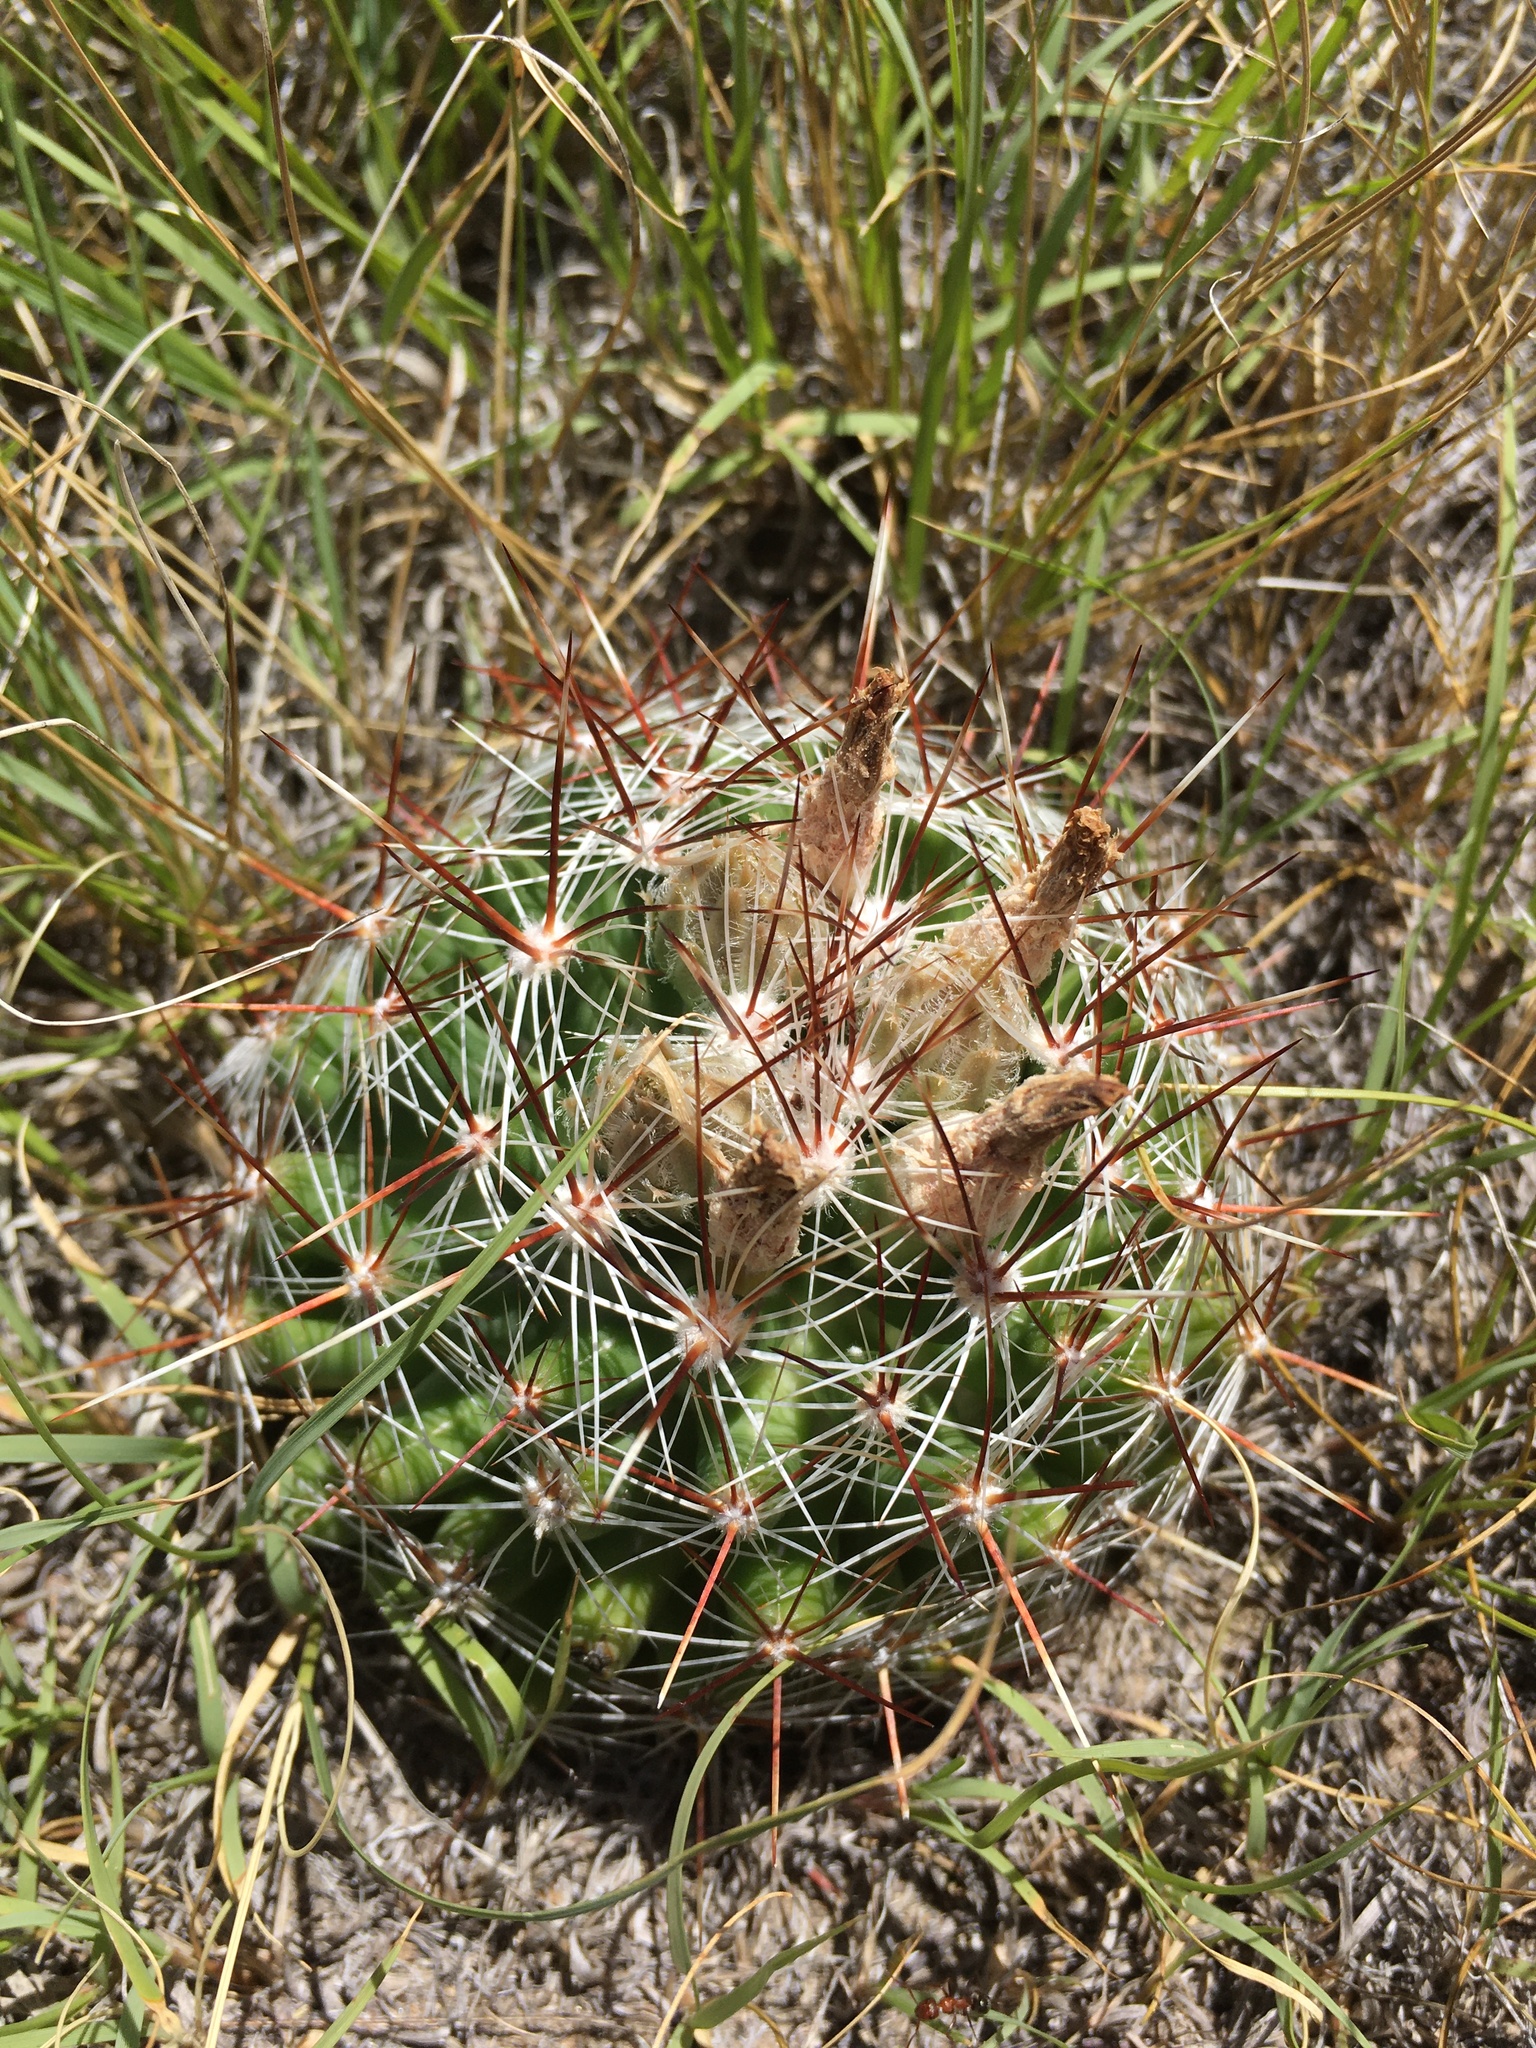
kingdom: Plantae
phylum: Tracheophyta
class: Magnoliopsida
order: Caryophyllales
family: Cactaceae
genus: Pelecyphora
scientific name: Pelecyphora vivipara
